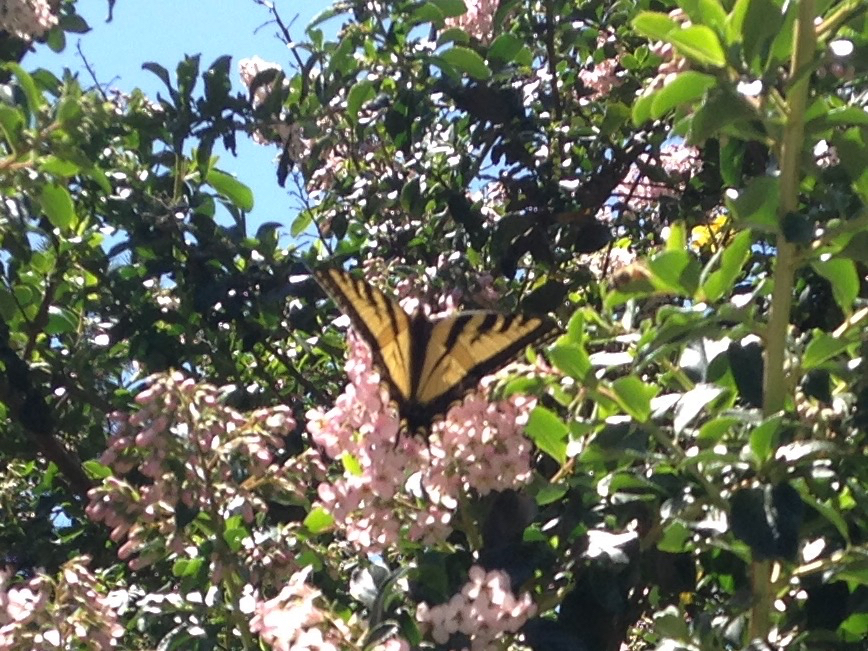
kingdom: Animalia
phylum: Arthropoda
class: Insecta
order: Lepidoptera
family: Papilionidae
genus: Papilio
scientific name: Papilio rutulus
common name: Western tiger swallowtail
